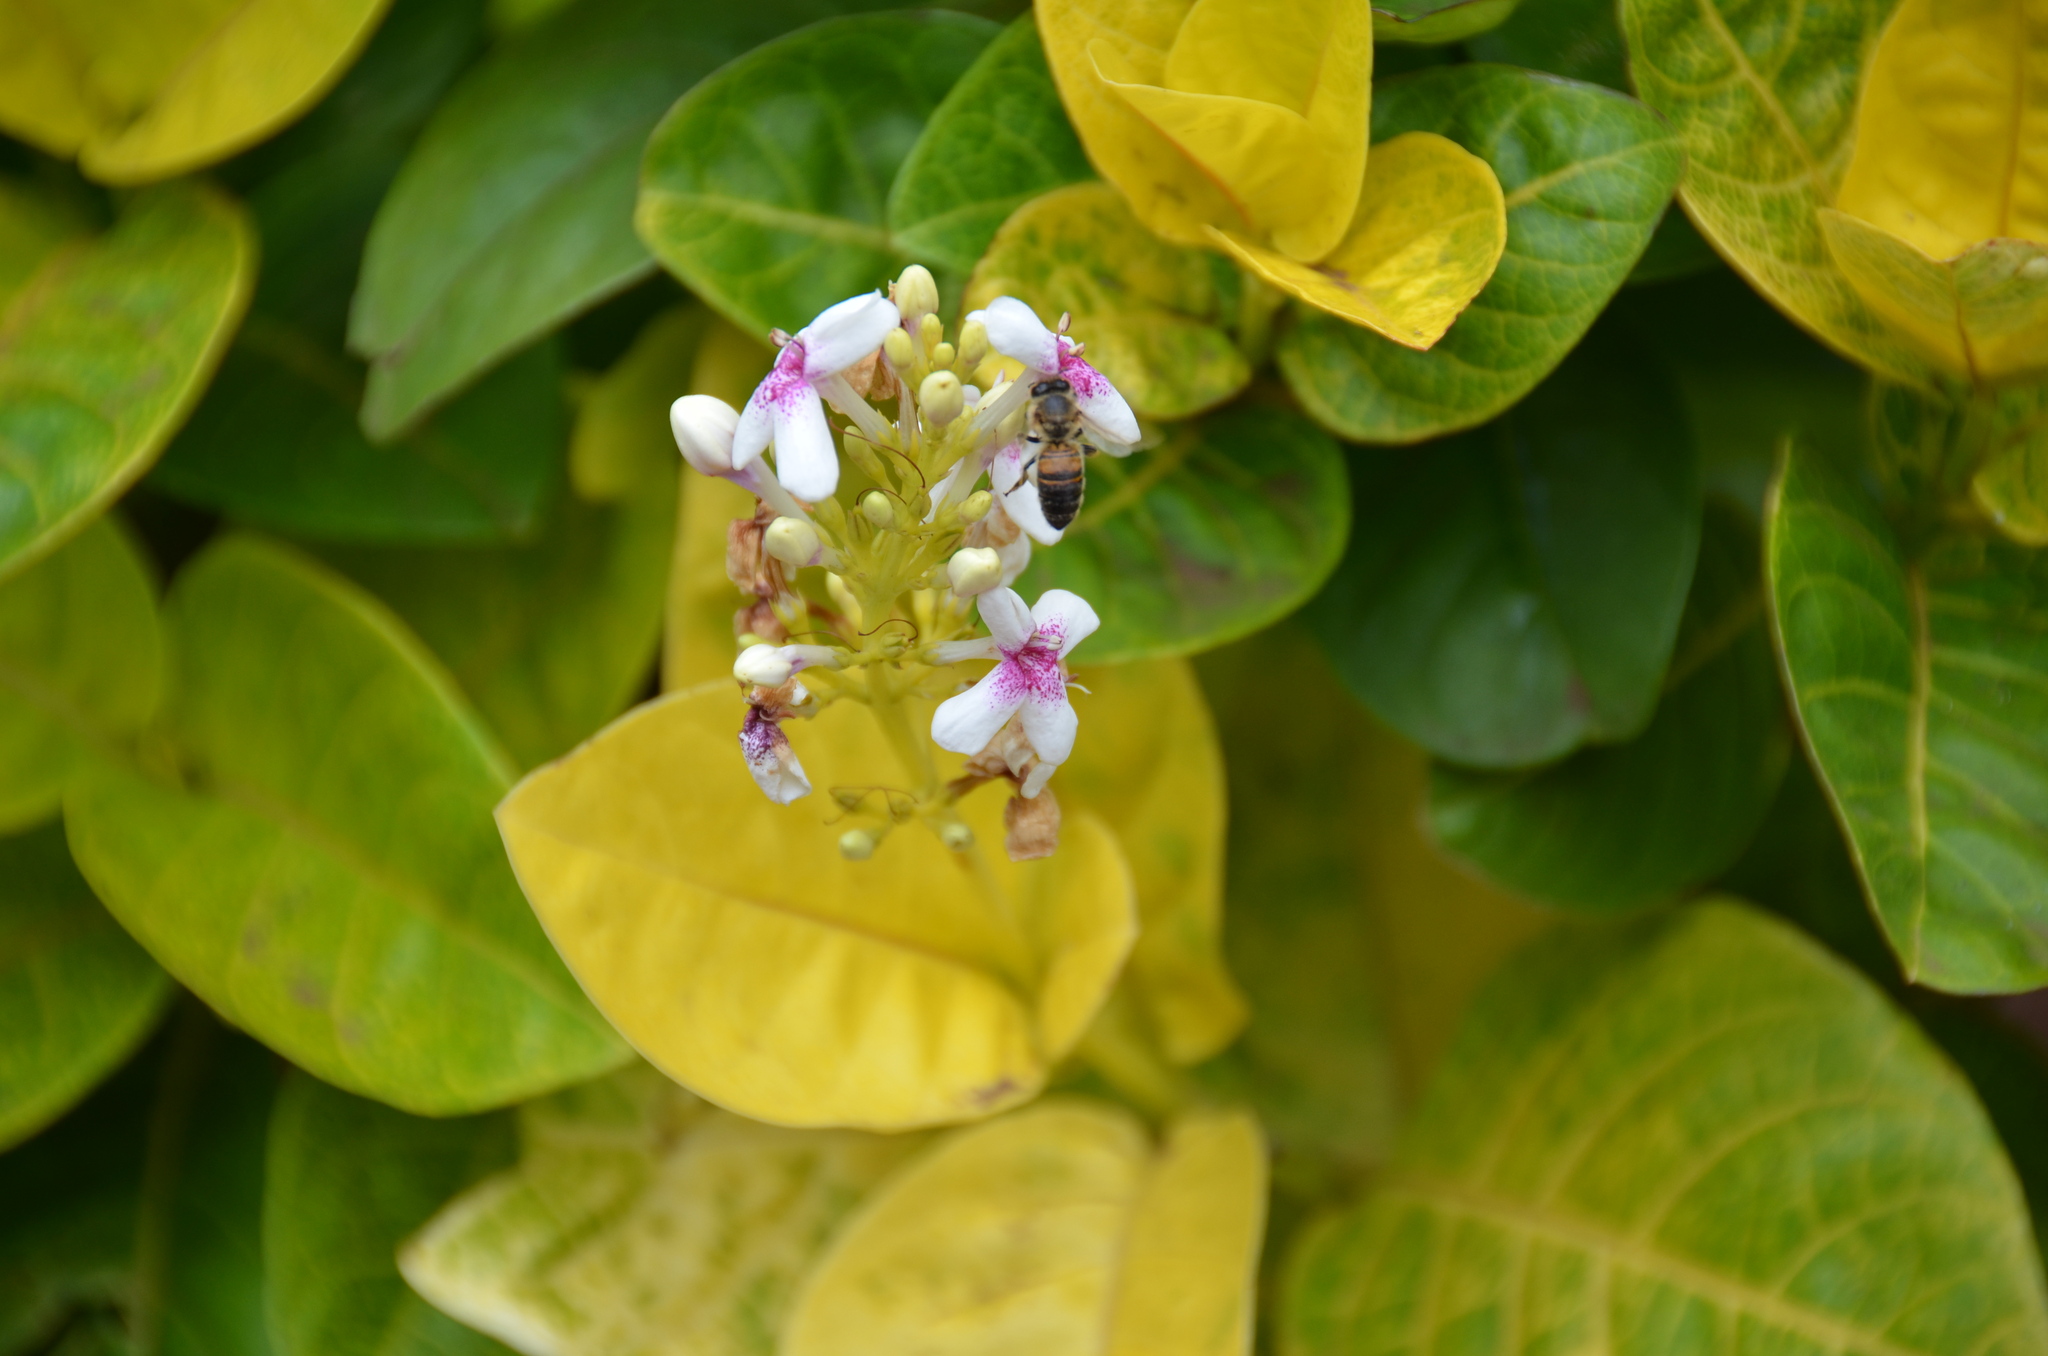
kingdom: Animalia
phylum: Arthropoda
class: Insecta
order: Hymenoptera
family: Apidae
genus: Apis
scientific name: Apis mellifera
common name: Honey bee
